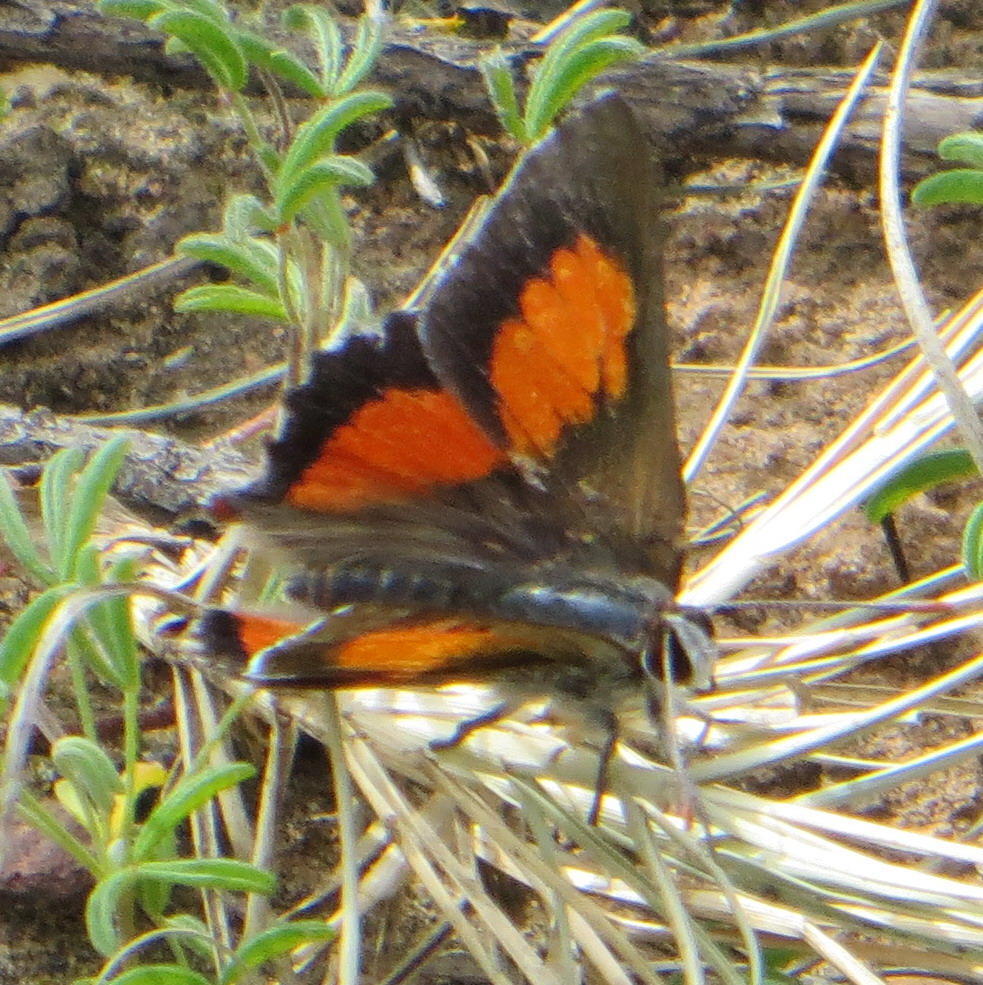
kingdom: Animalia
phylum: Arthropoda
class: Insecta
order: Lepidoptera
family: Lycaenidae
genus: Capys
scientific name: Capys alpheus
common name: Orange-banded protea butterfly
